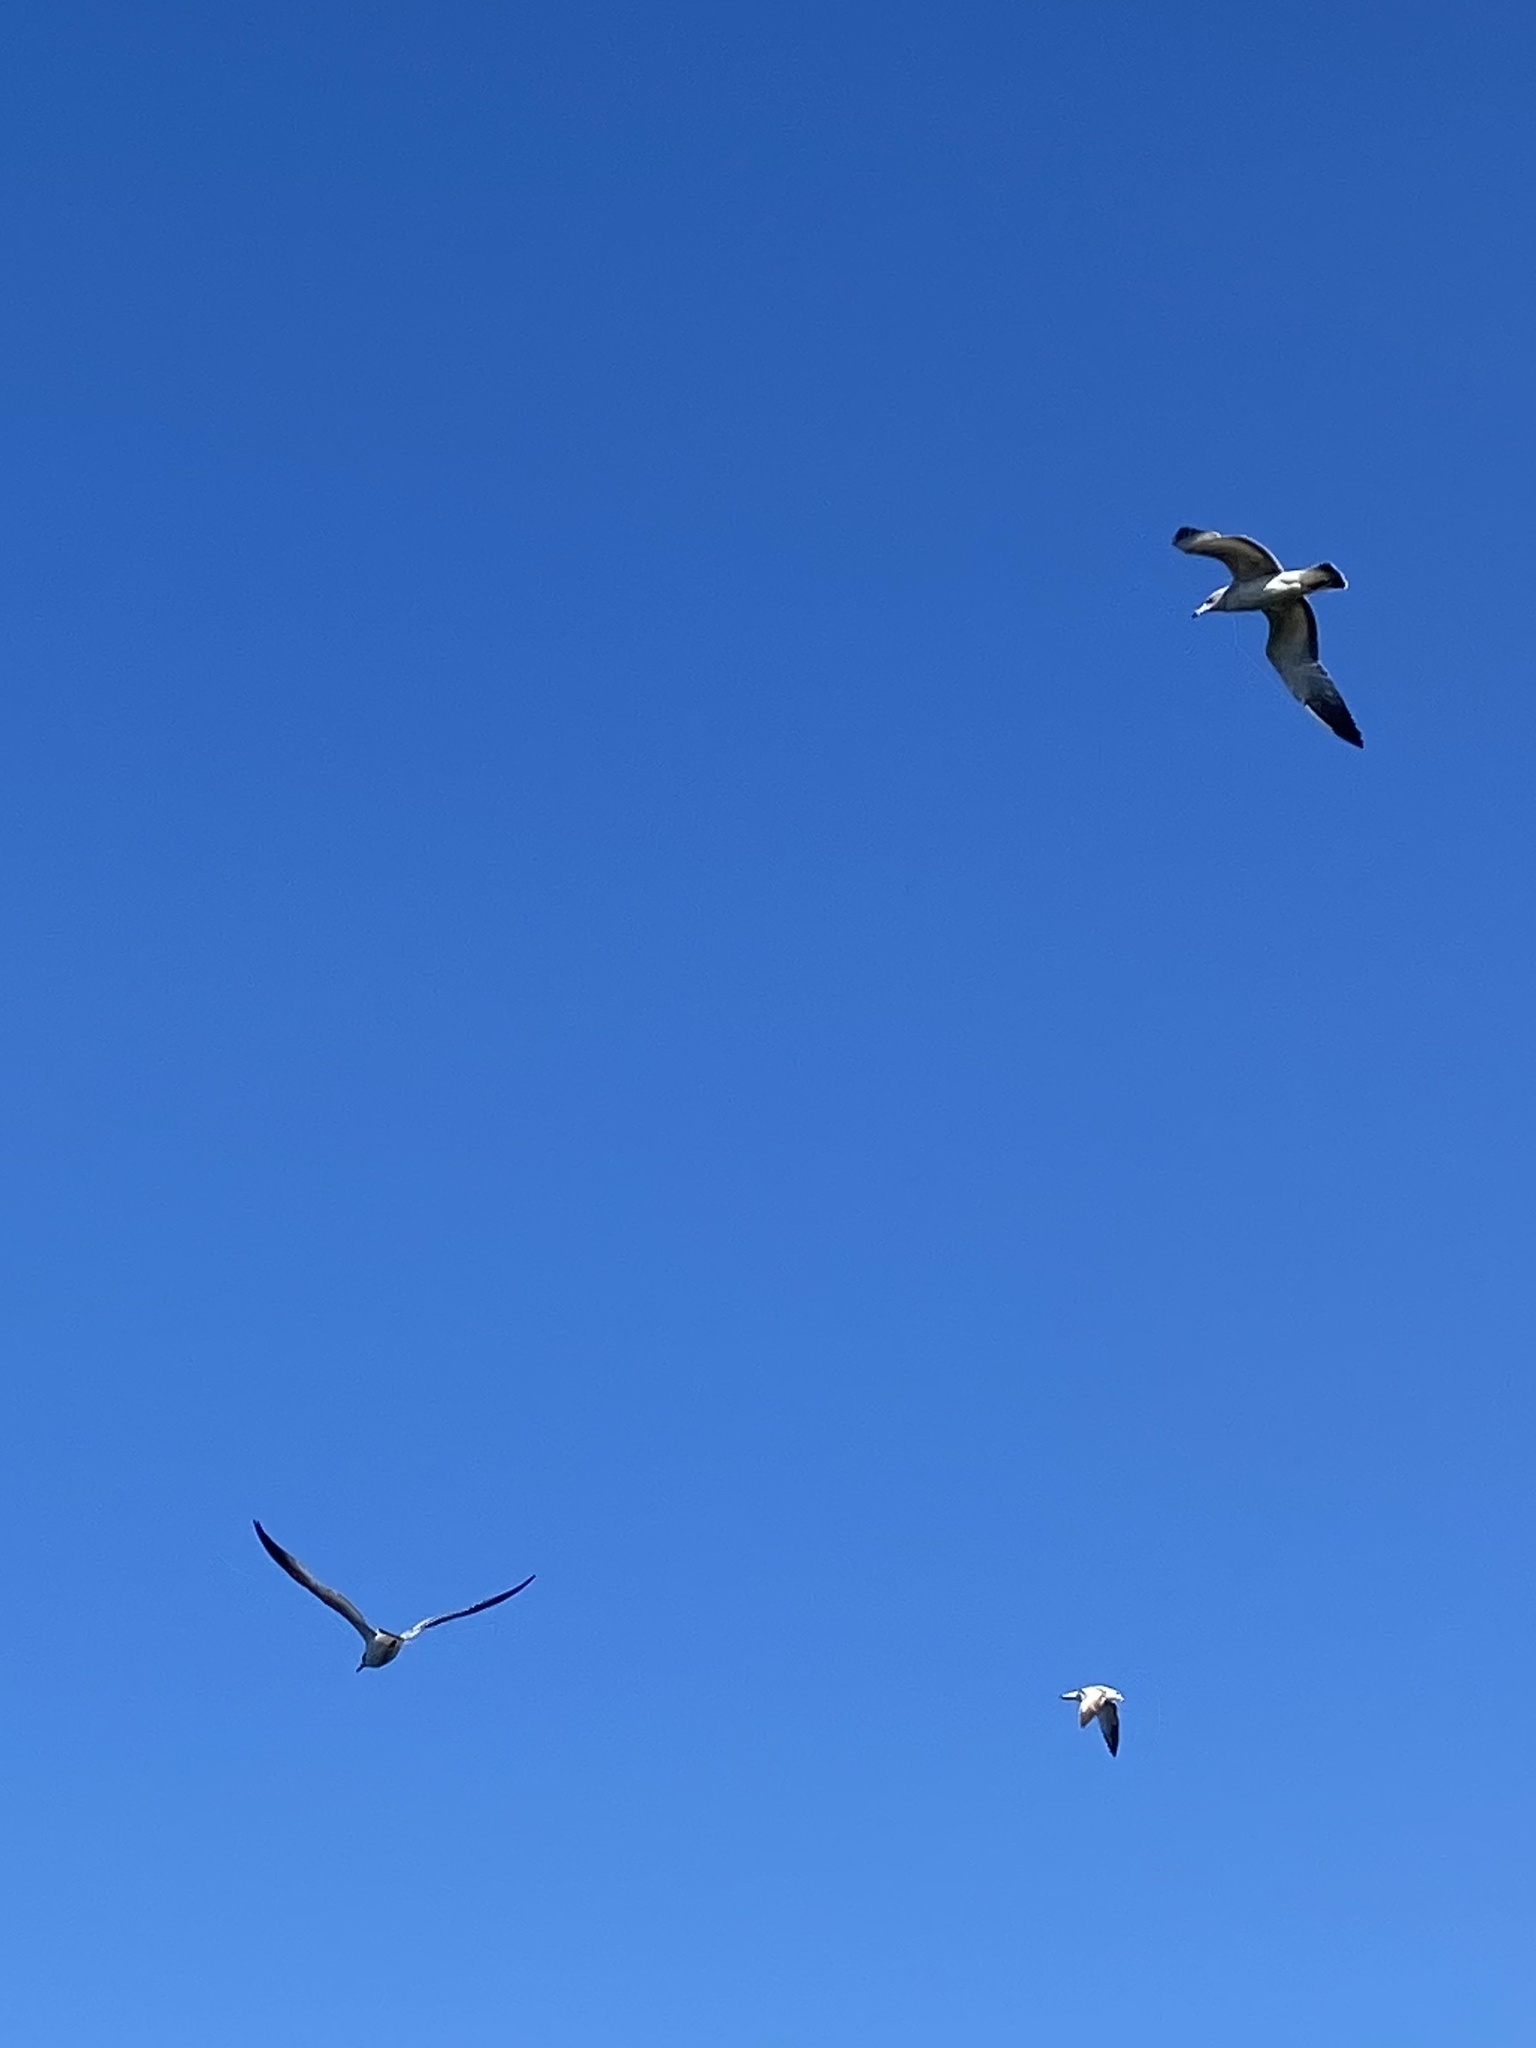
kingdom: Animalia
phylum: Chordata
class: Aves
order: Charadriiformes
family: Laridae
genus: Leucophaeus
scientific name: Leucophaeus atricilla
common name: Laughing gull
